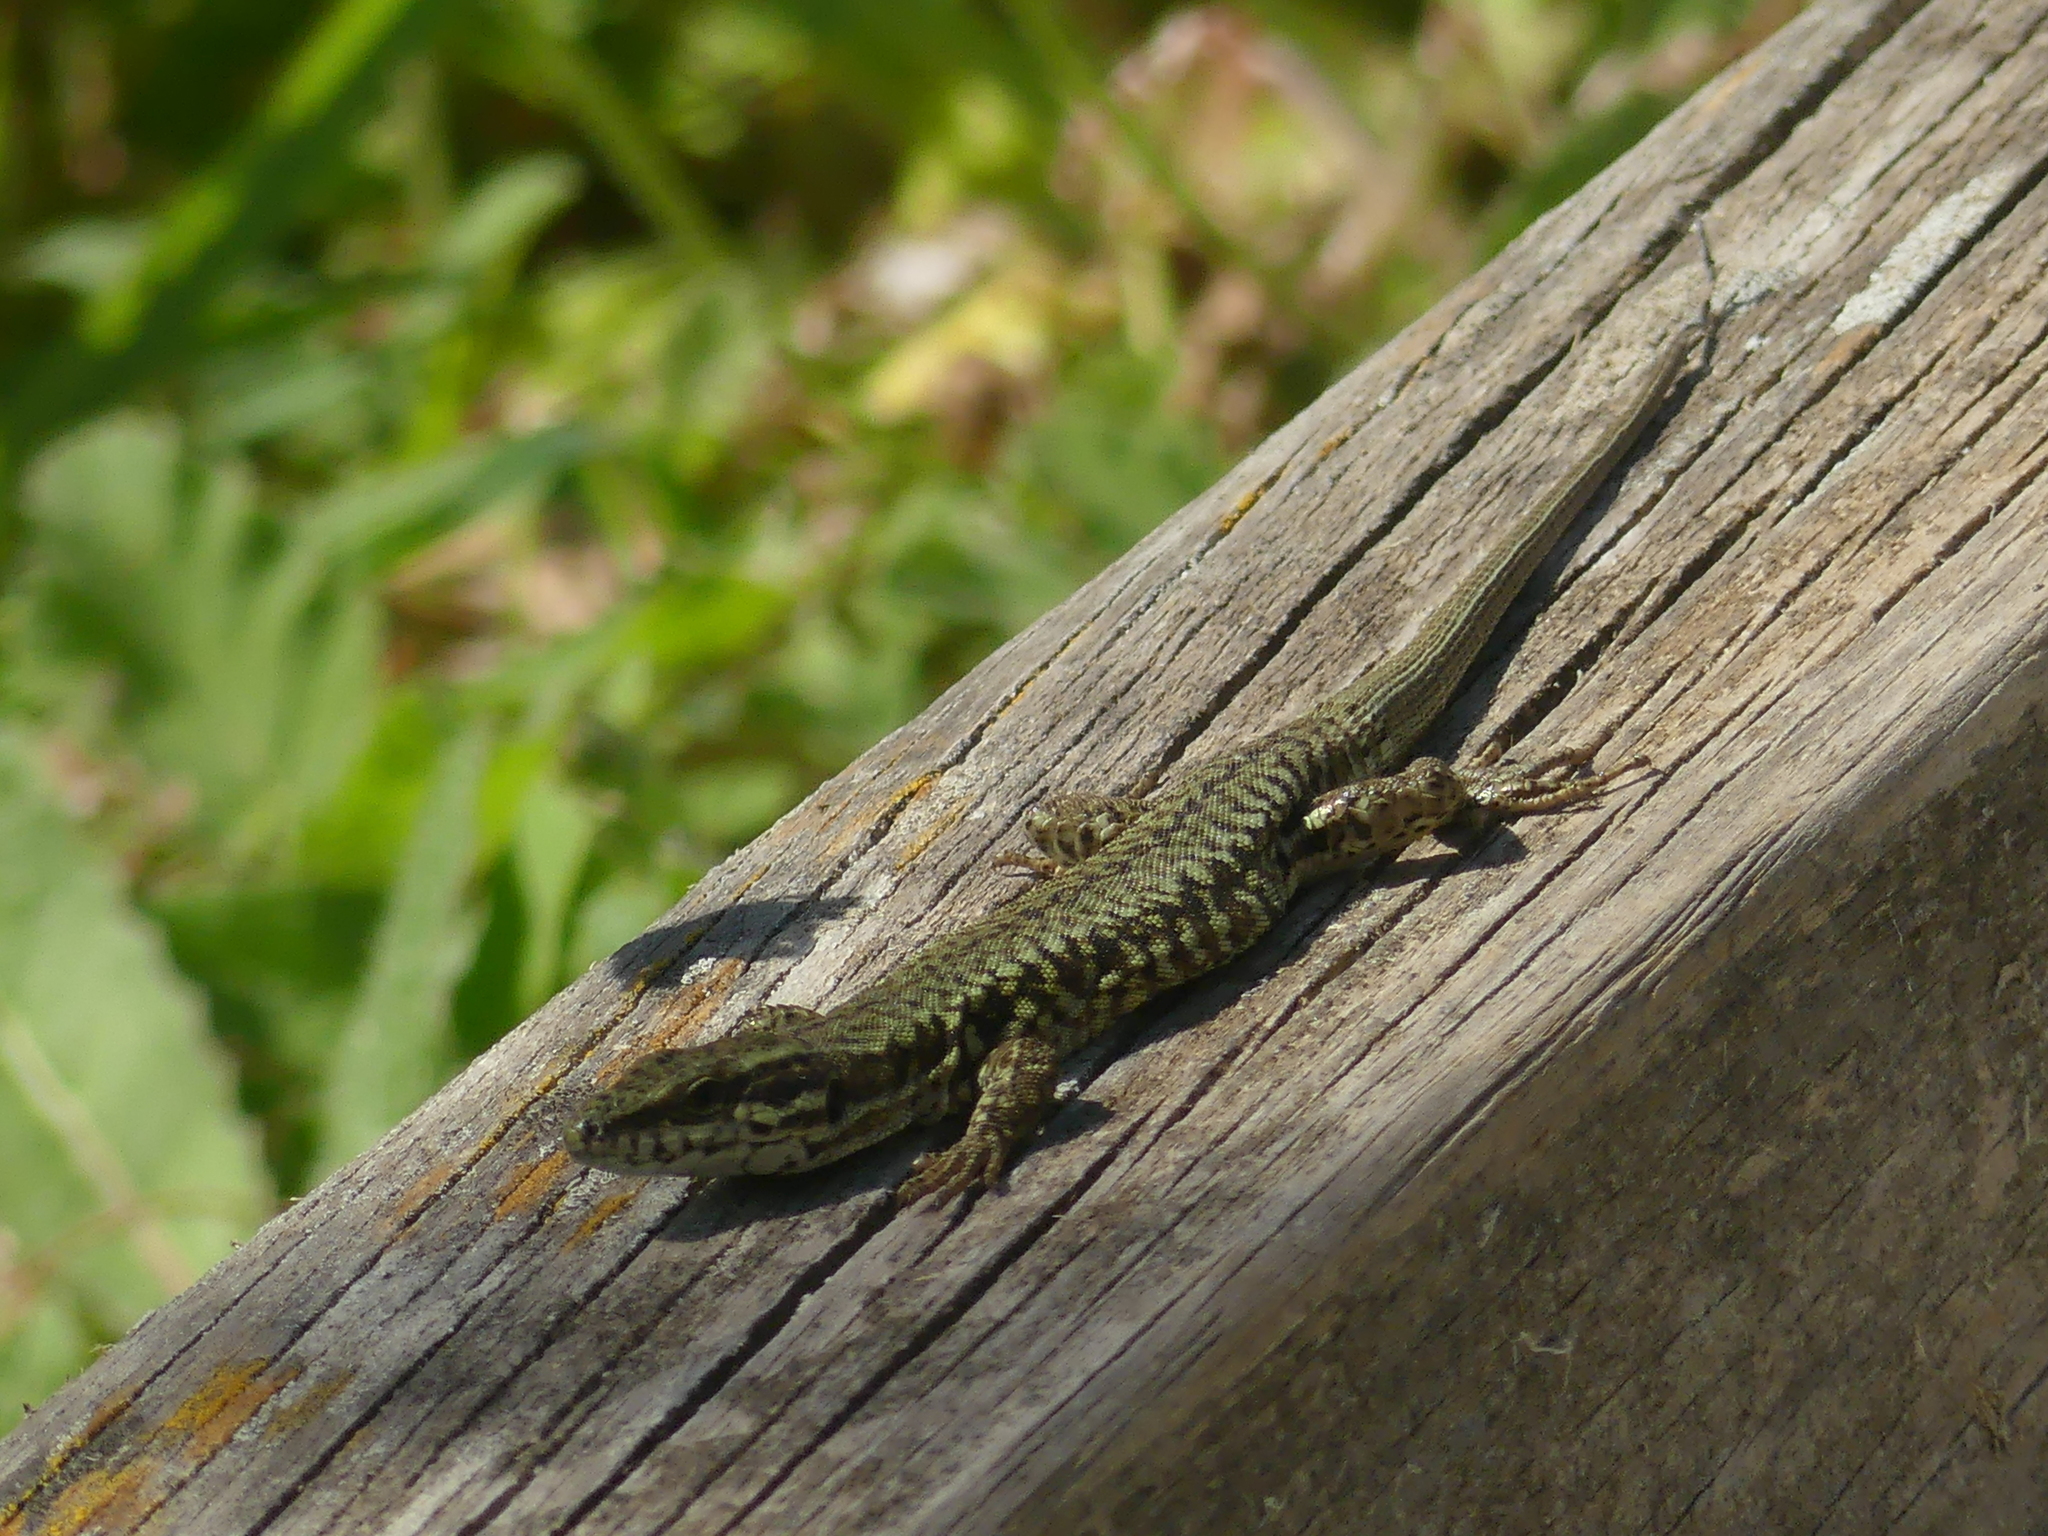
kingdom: Animalia
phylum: Chordata
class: Squamata
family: Lacertidae
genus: Podarcis
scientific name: Podarcis muralis
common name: Common wall lizard
